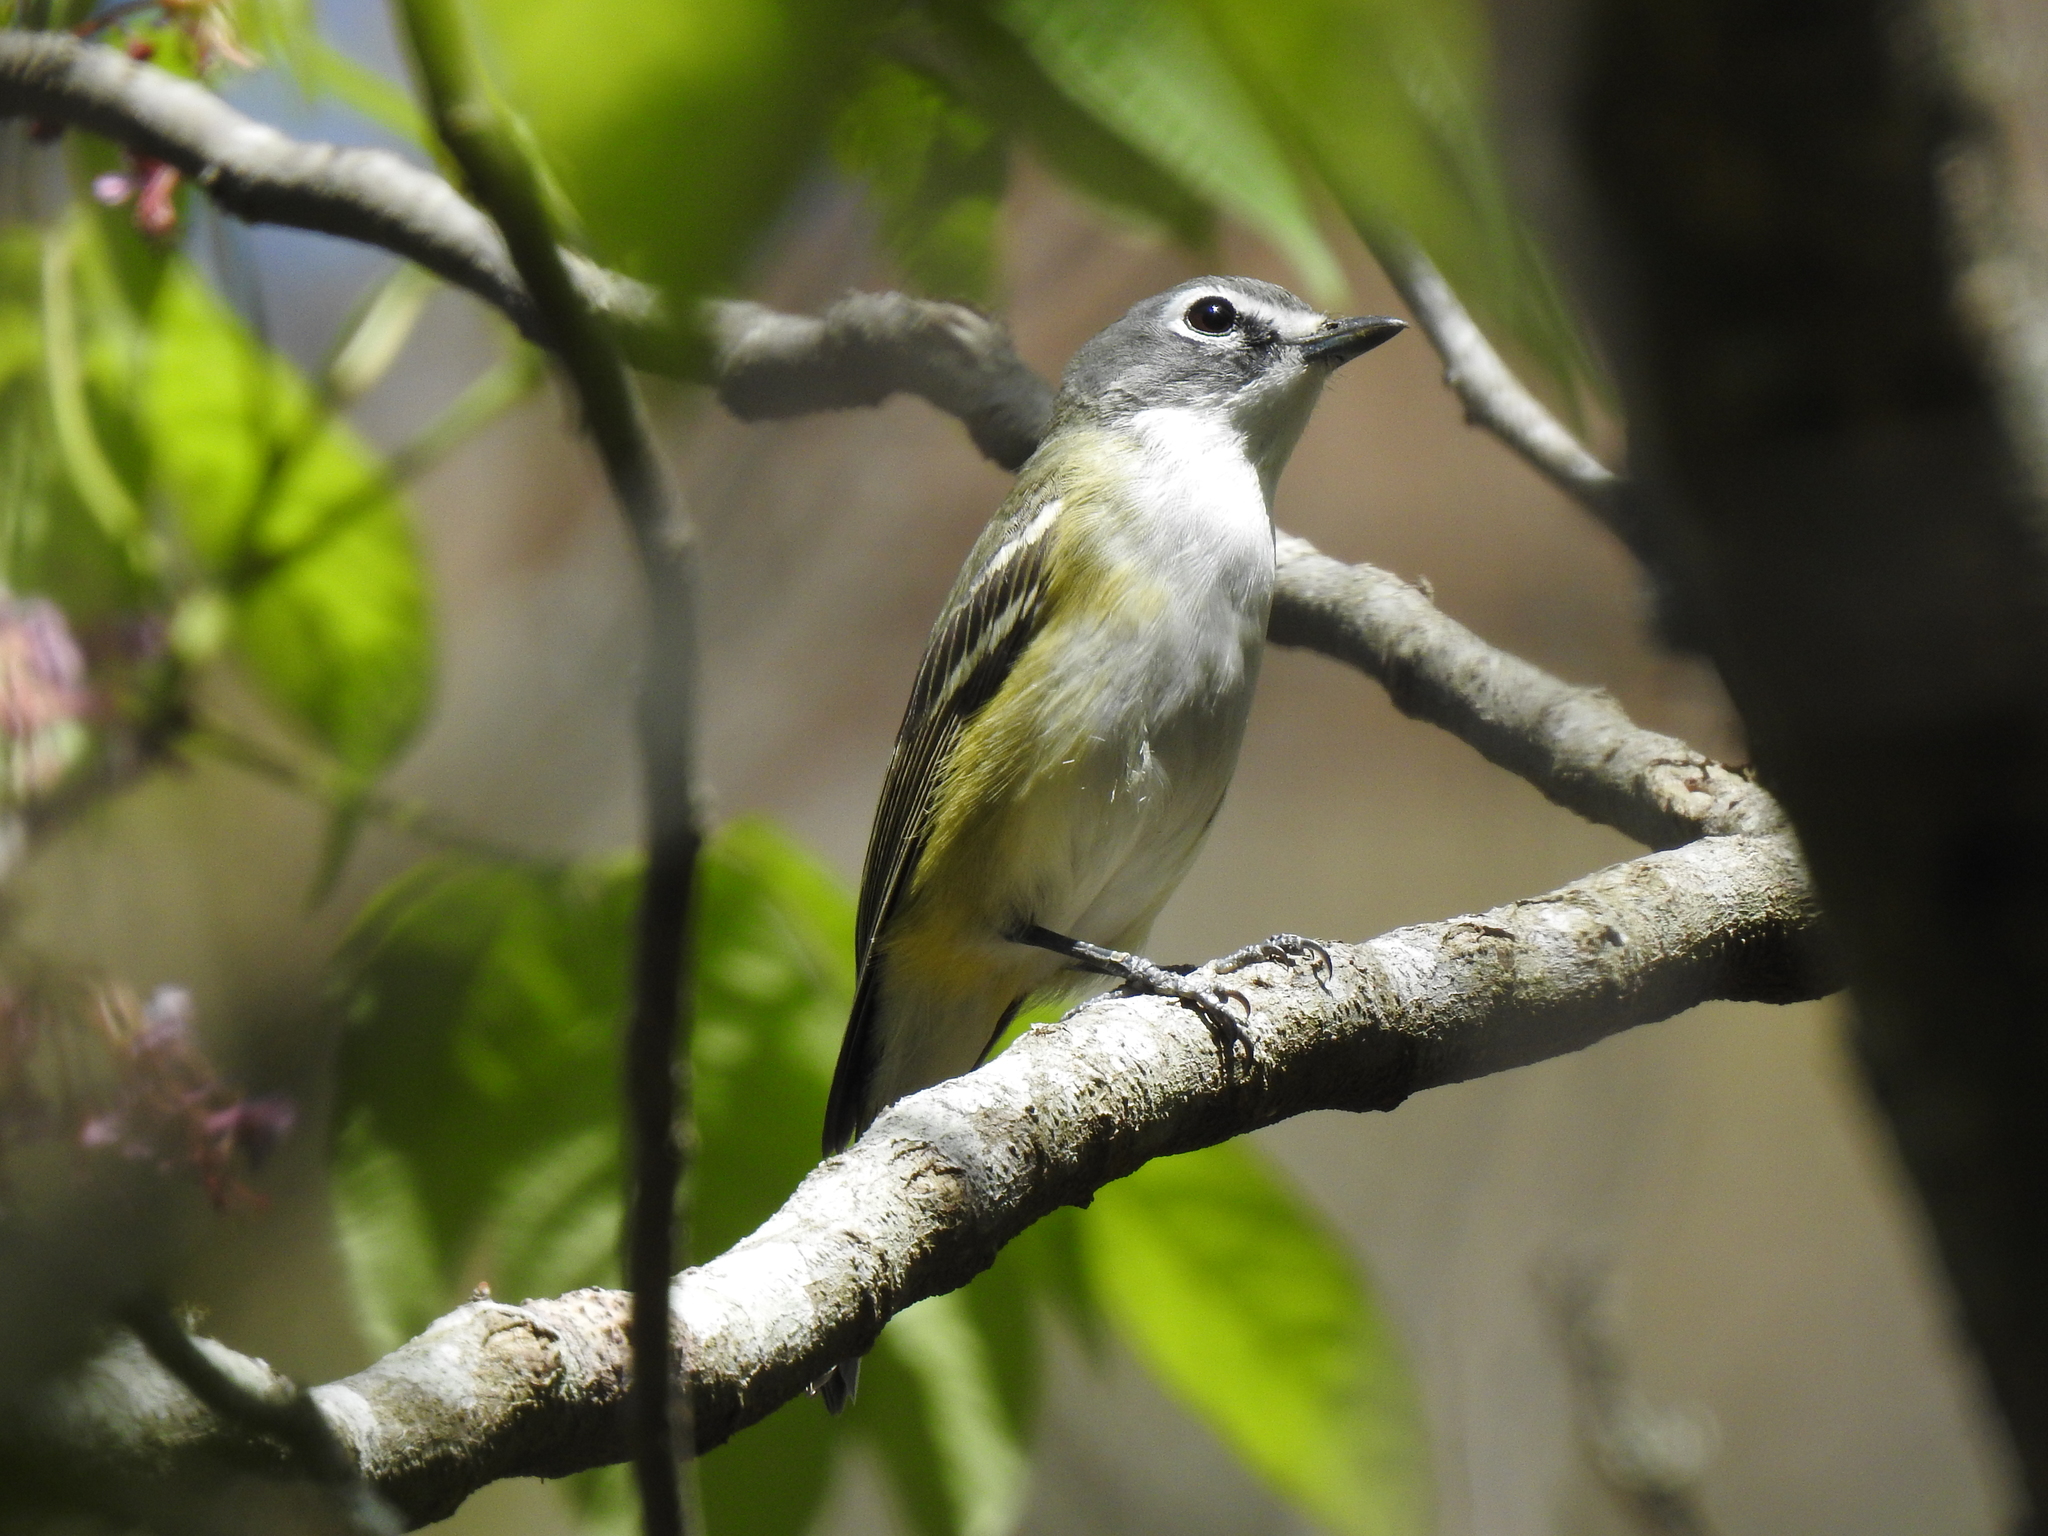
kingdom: Animalia
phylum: Chordata
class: Aves
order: Passeriformes
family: Vireonidae
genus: Vireo
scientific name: Vireo solitarius
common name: Blue-headed vireo
